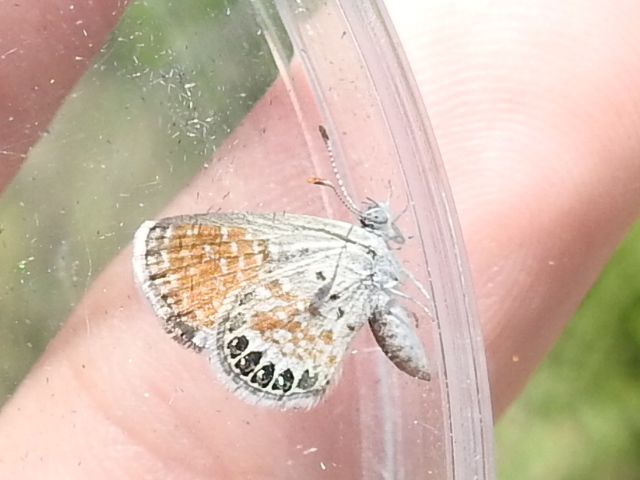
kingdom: Animalia
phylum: Arthropoda
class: Insecta
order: Lepidoptera
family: Lycaenidae
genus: Brephidium
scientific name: Brephidium exilis
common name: Pygmy blue
